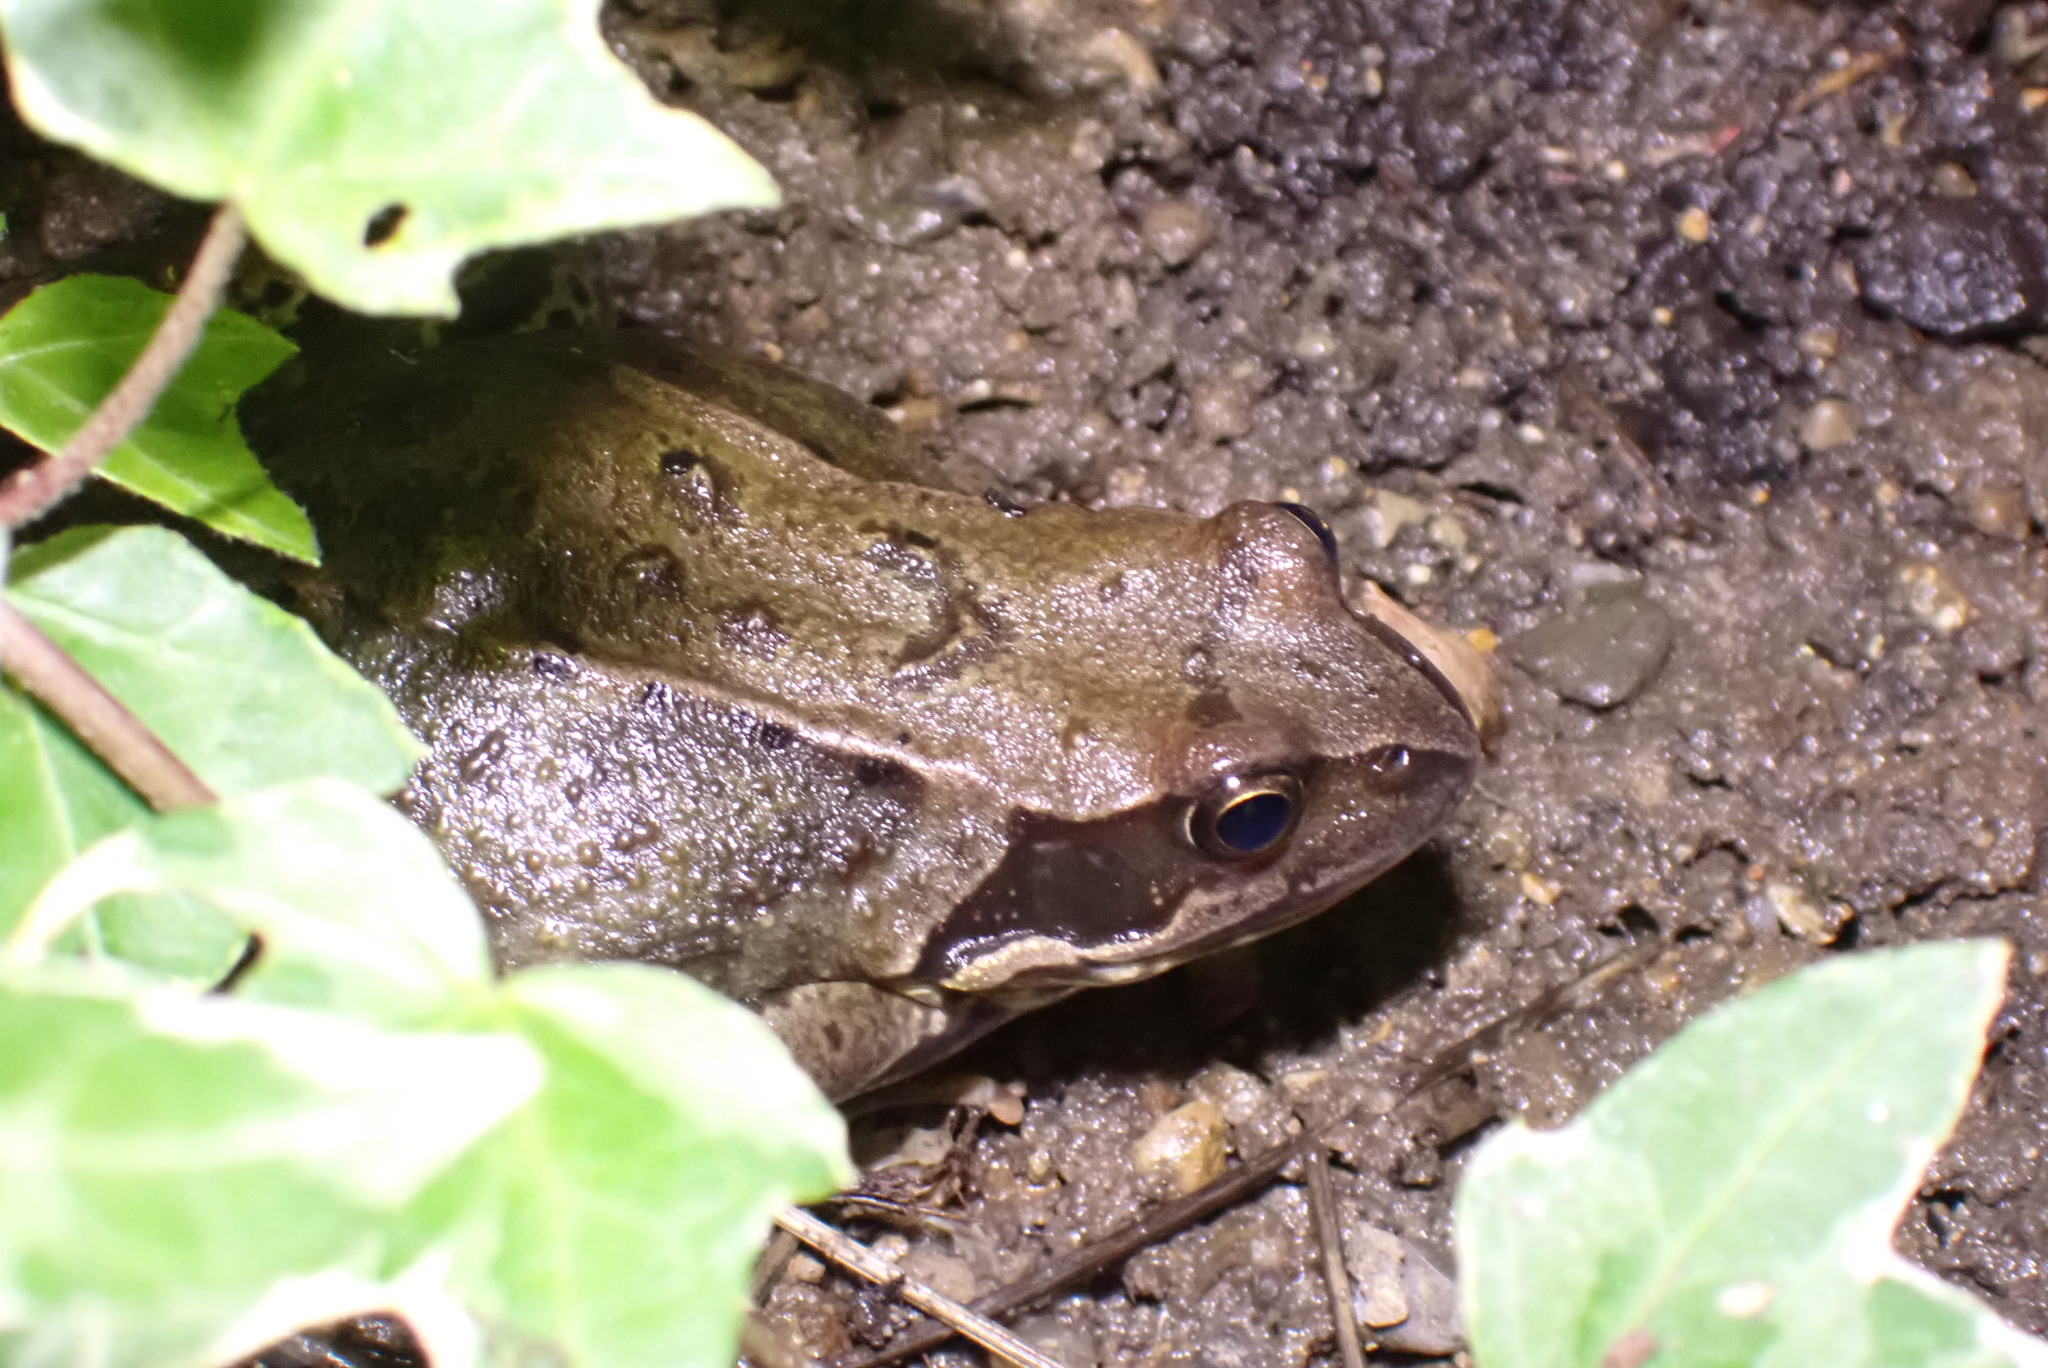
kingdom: Animalia
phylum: Chordata
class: Amphibia
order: Anura
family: Ranidae
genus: Rana
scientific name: Rana temporaria
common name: Common frog
